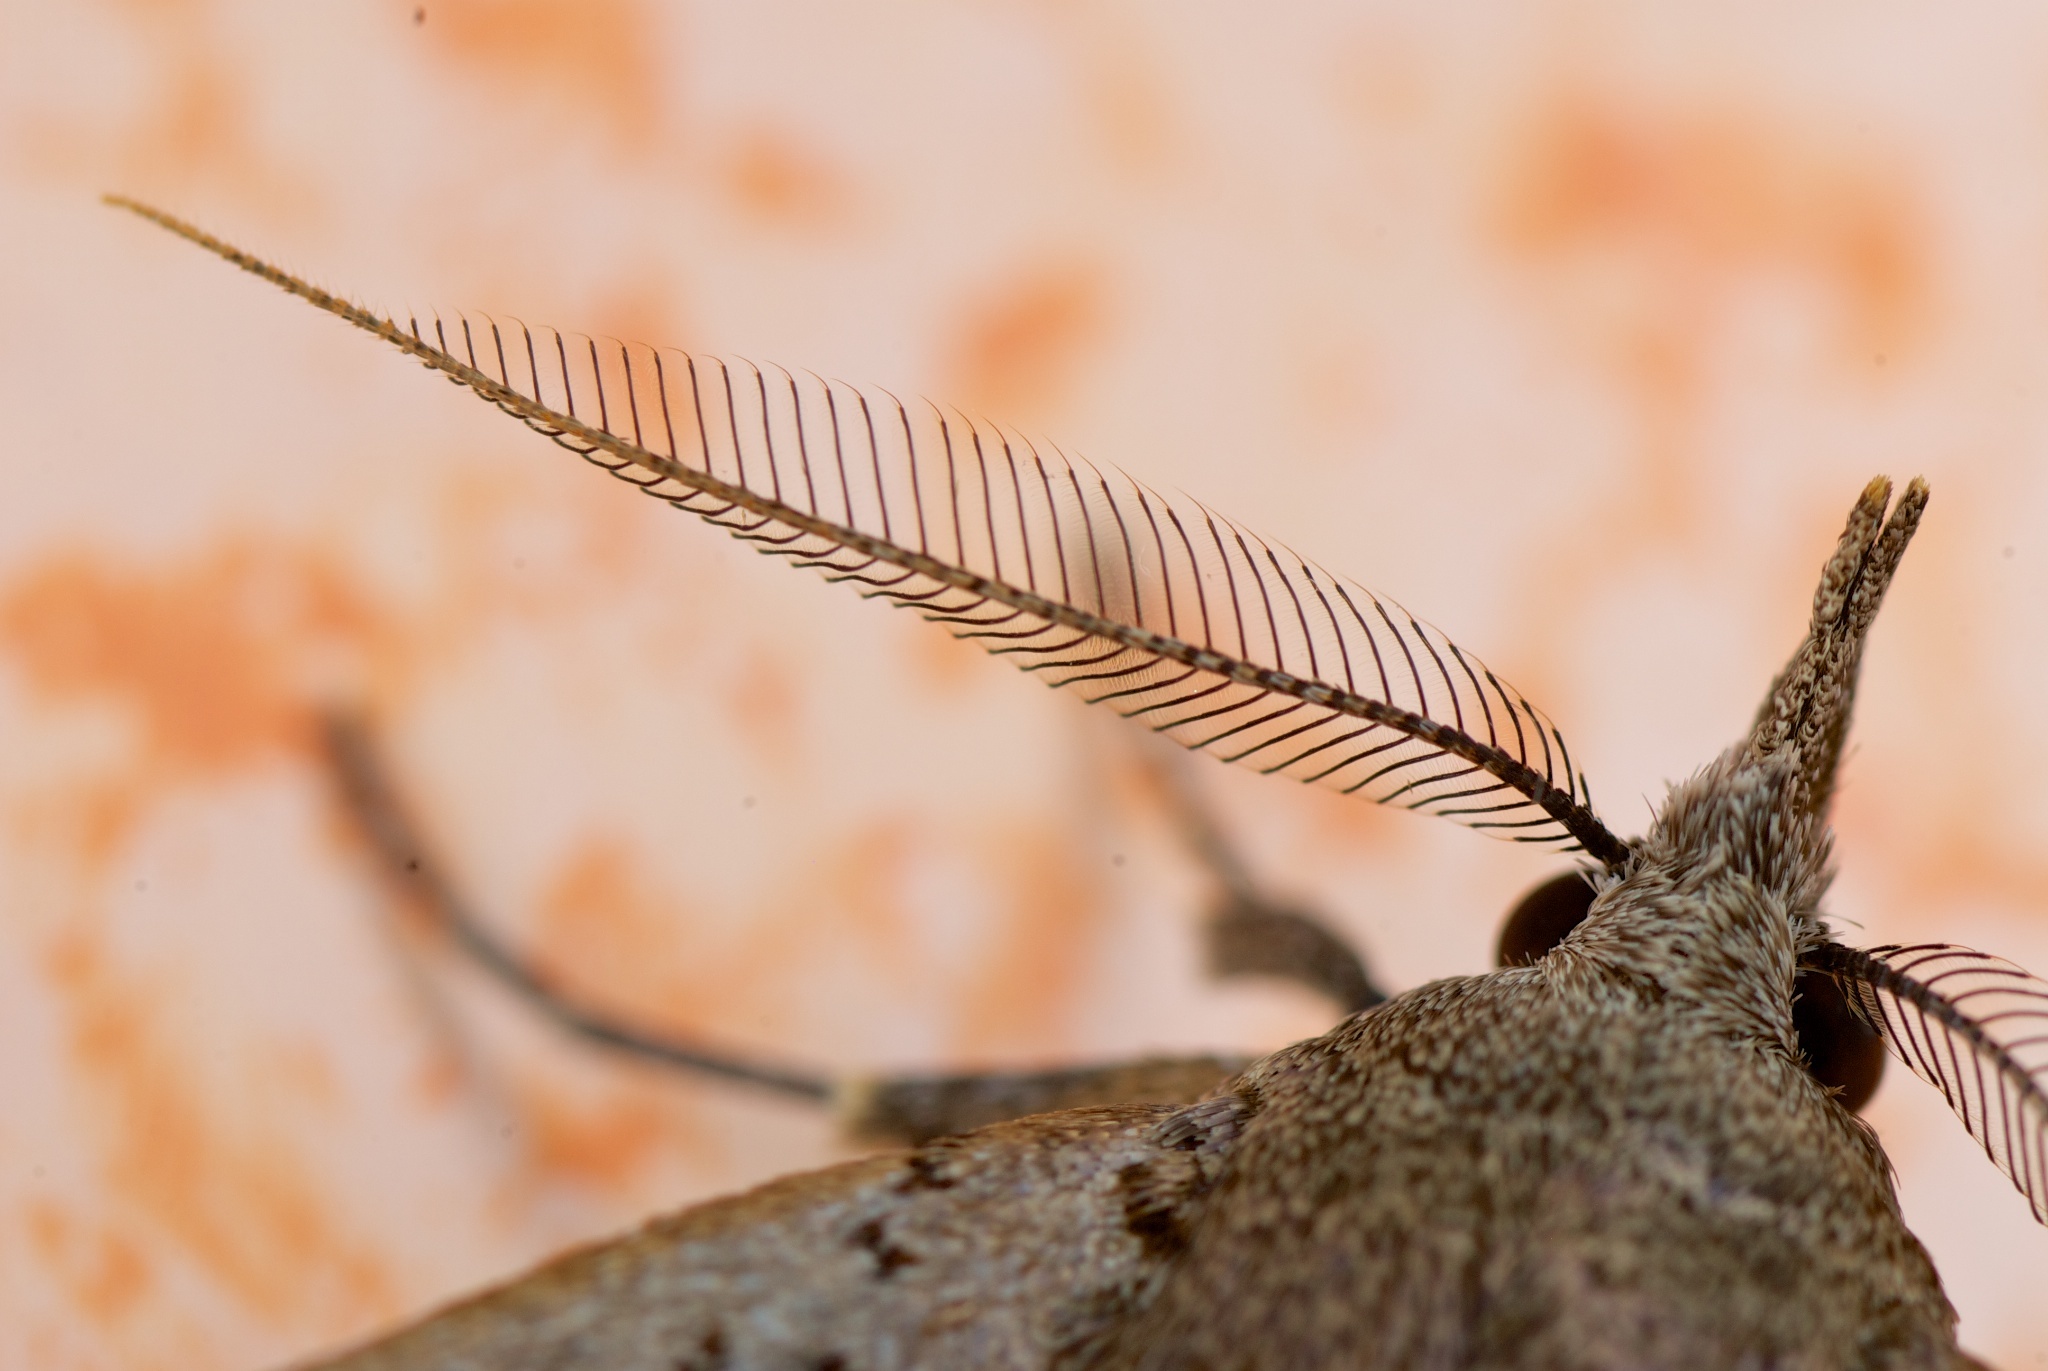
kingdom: Animalia
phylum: Arthropoda
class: Insecta
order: Lepidoptera
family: Erebidae
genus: Rhapsa
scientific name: Rhapsa scotosialis
